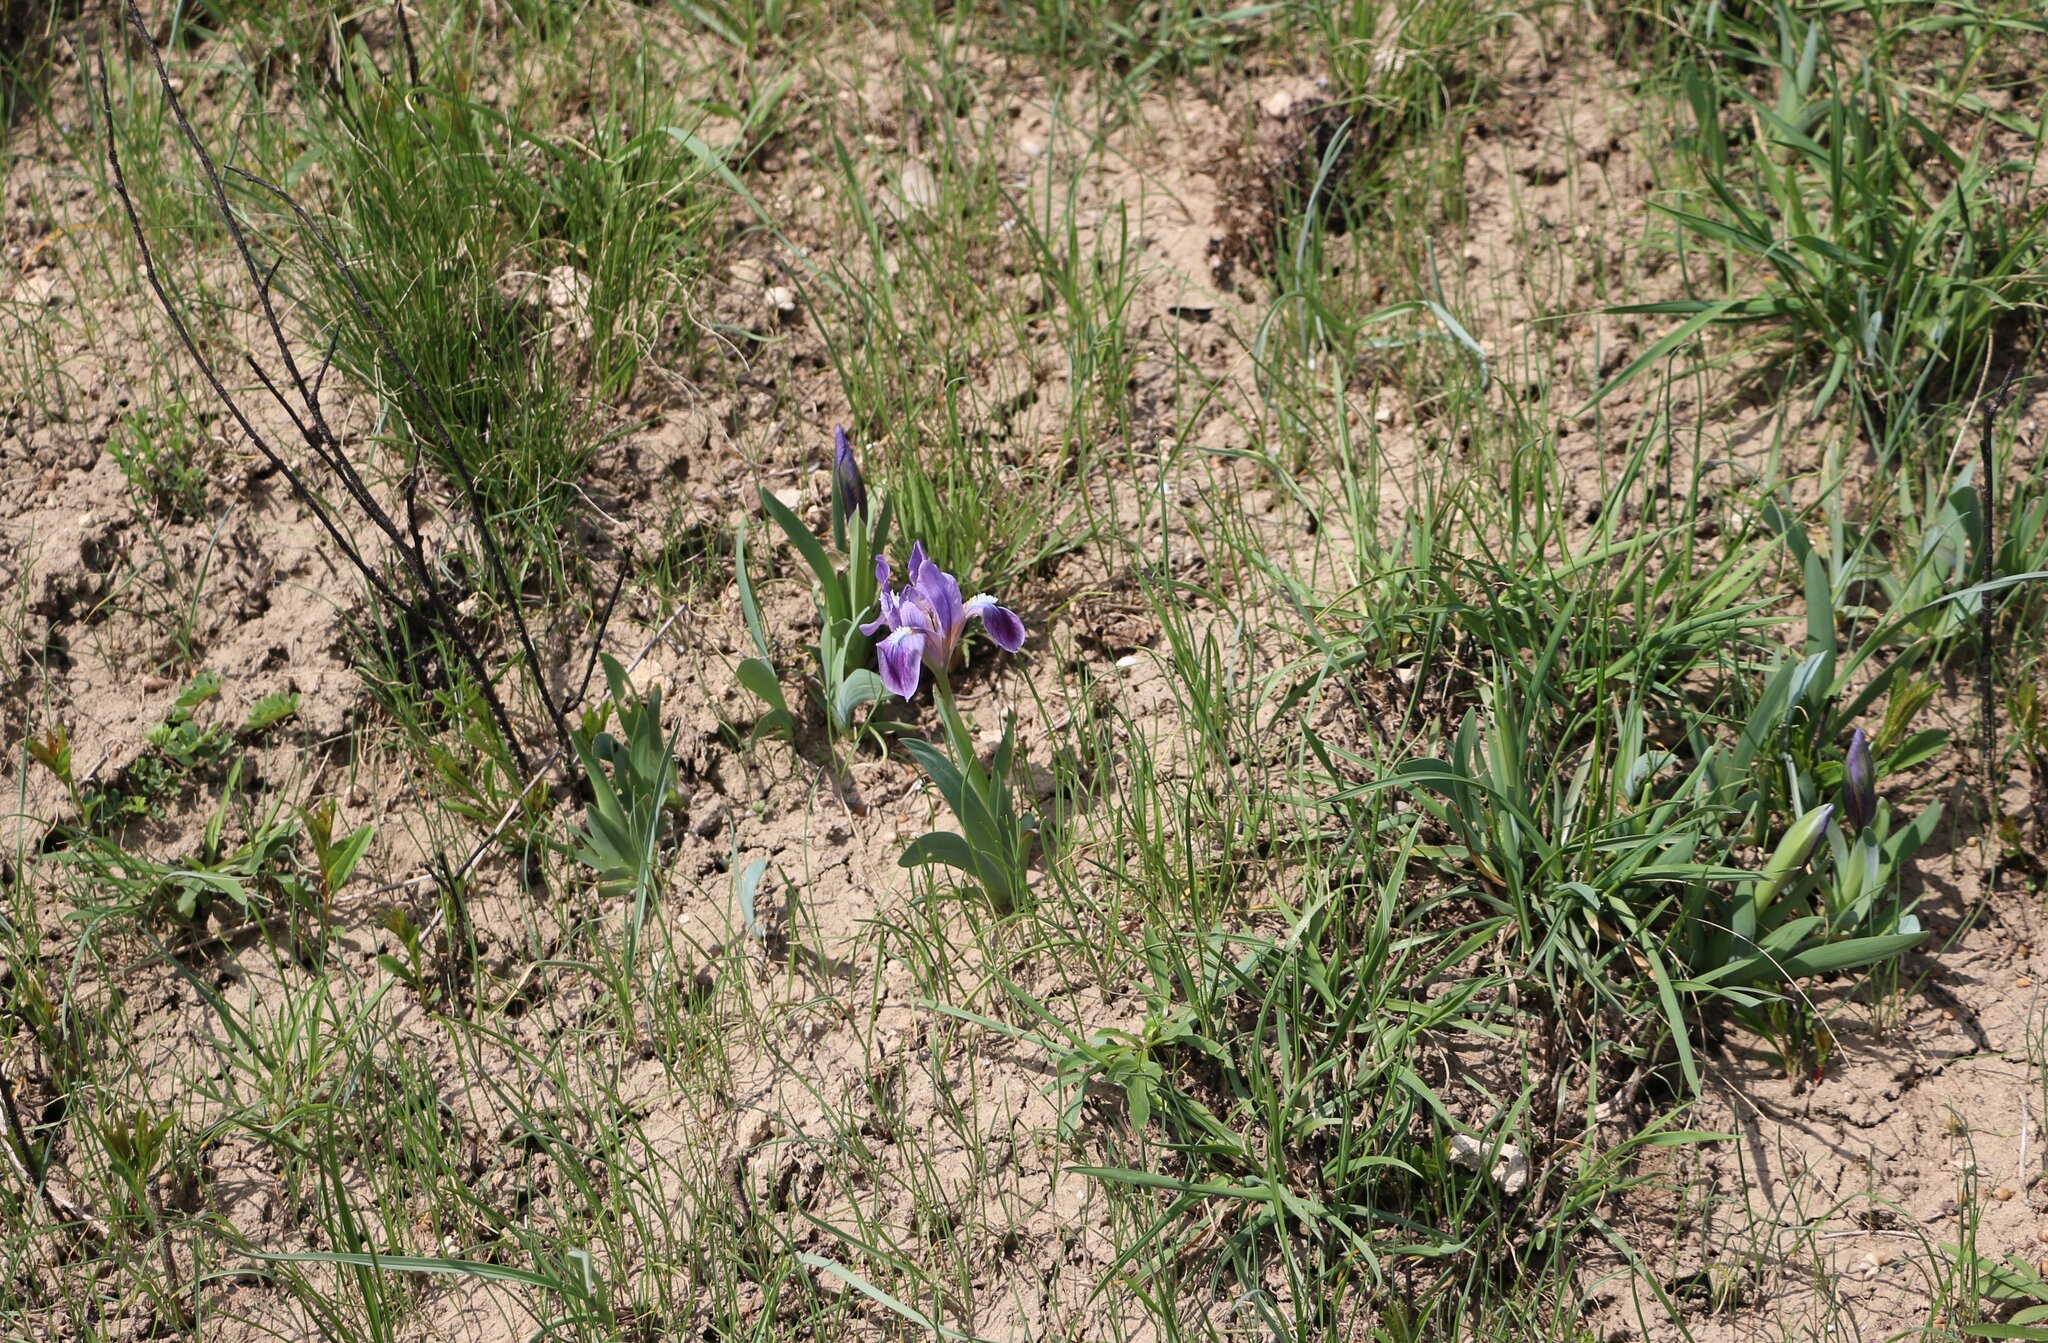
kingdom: Plantae
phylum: Tracheophyta
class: Liliopsida
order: Asparagales
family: Iridaceae
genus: Iris
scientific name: Iris pumila
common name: Dwarf iris
